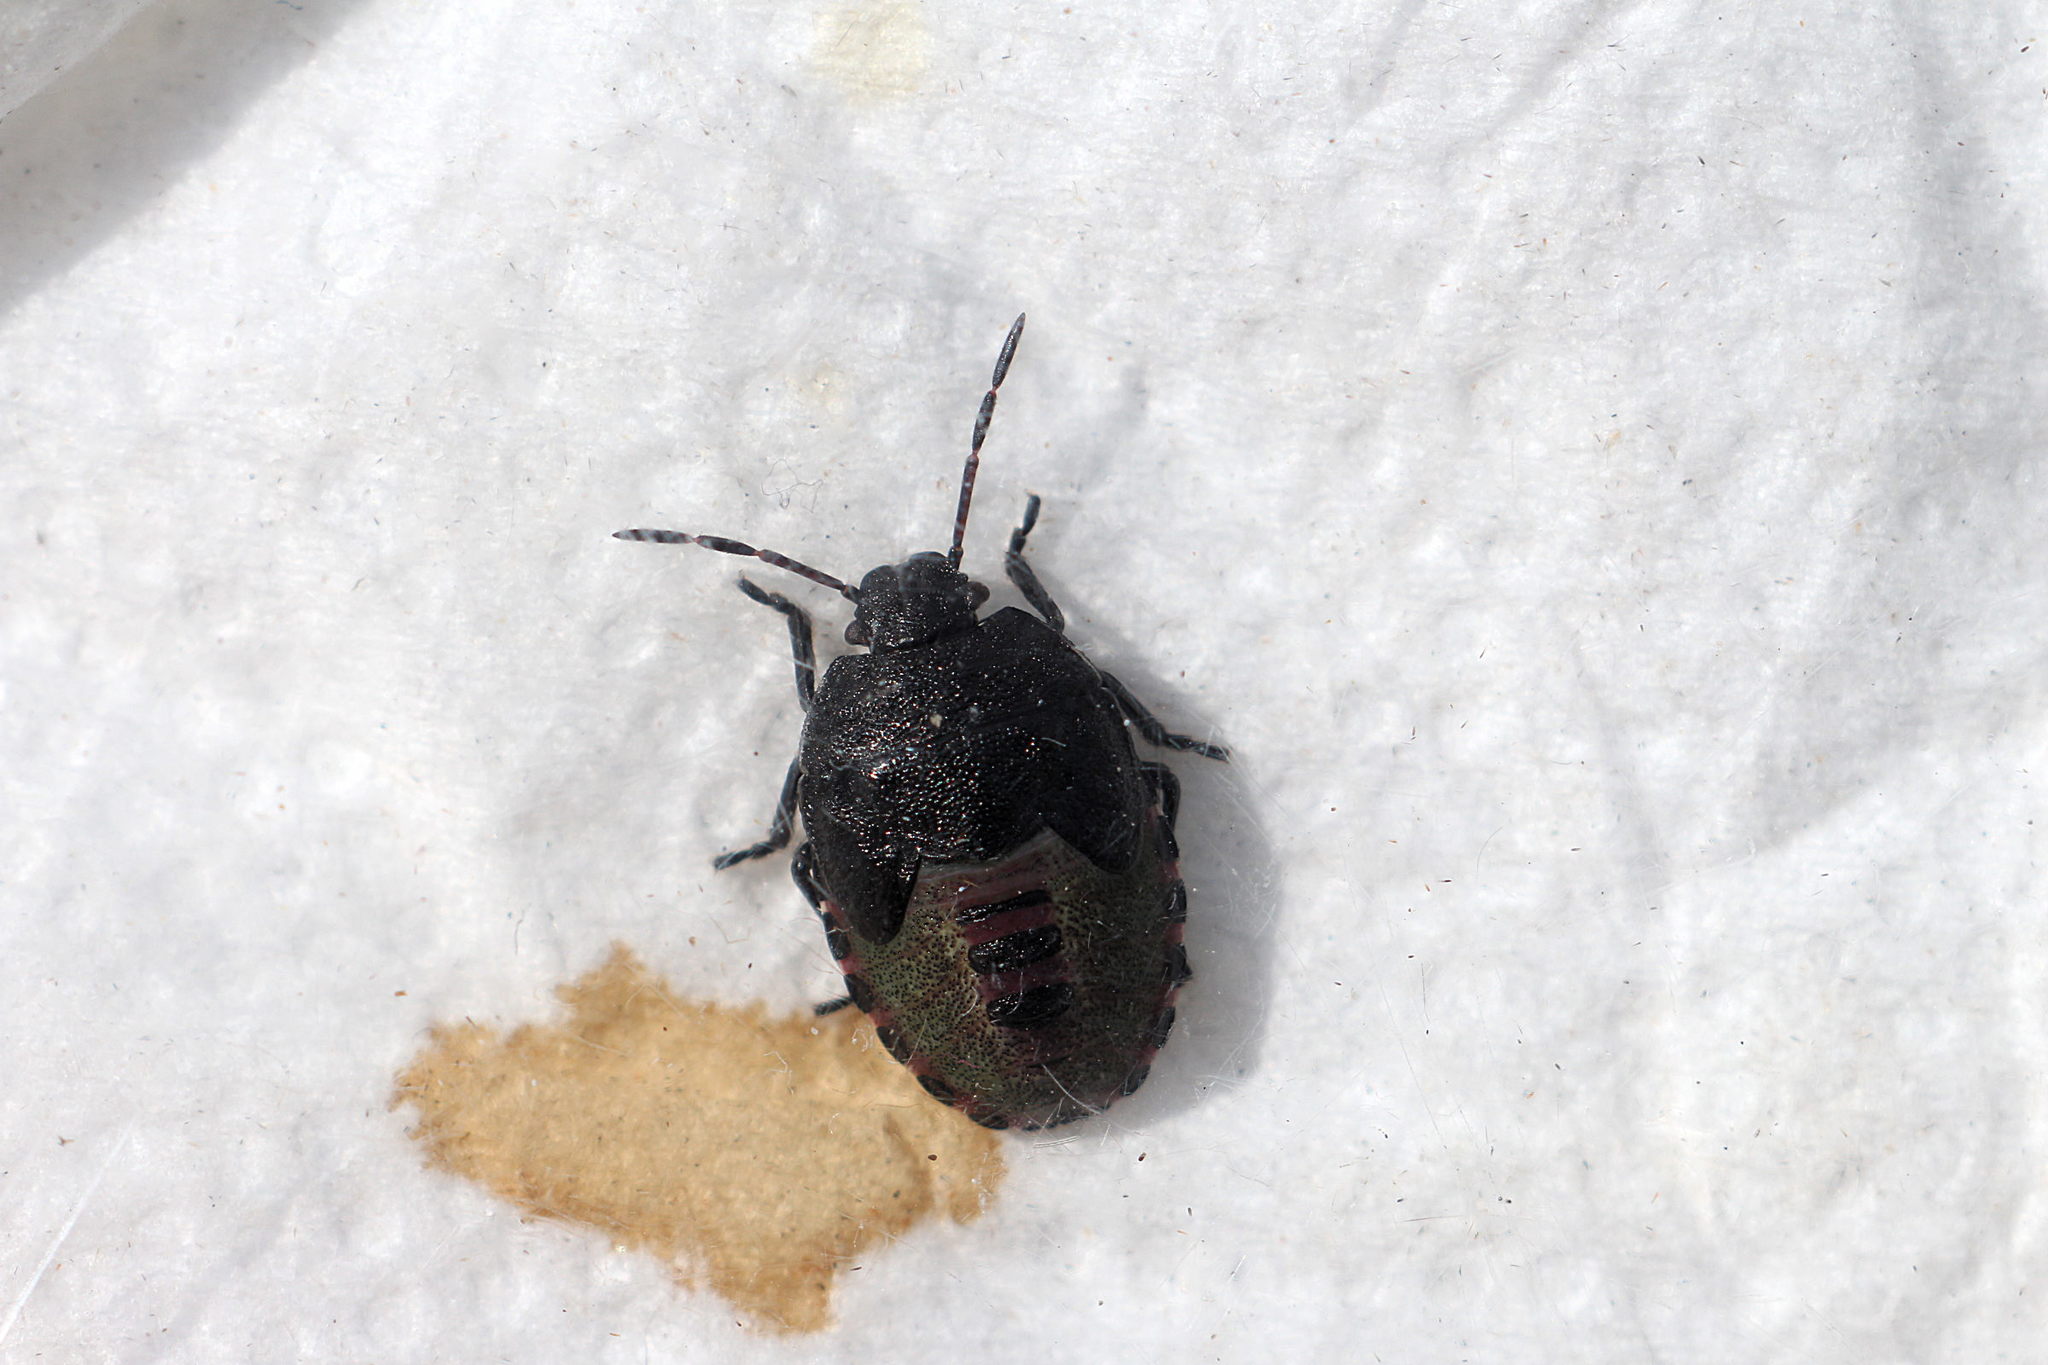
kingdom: Animalia
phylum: Arthropoda
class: Insecta
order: Hemiptera
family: Pentatomidae
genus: Piezodorus
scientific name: Piezodorus lituratus
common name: Stink bug
